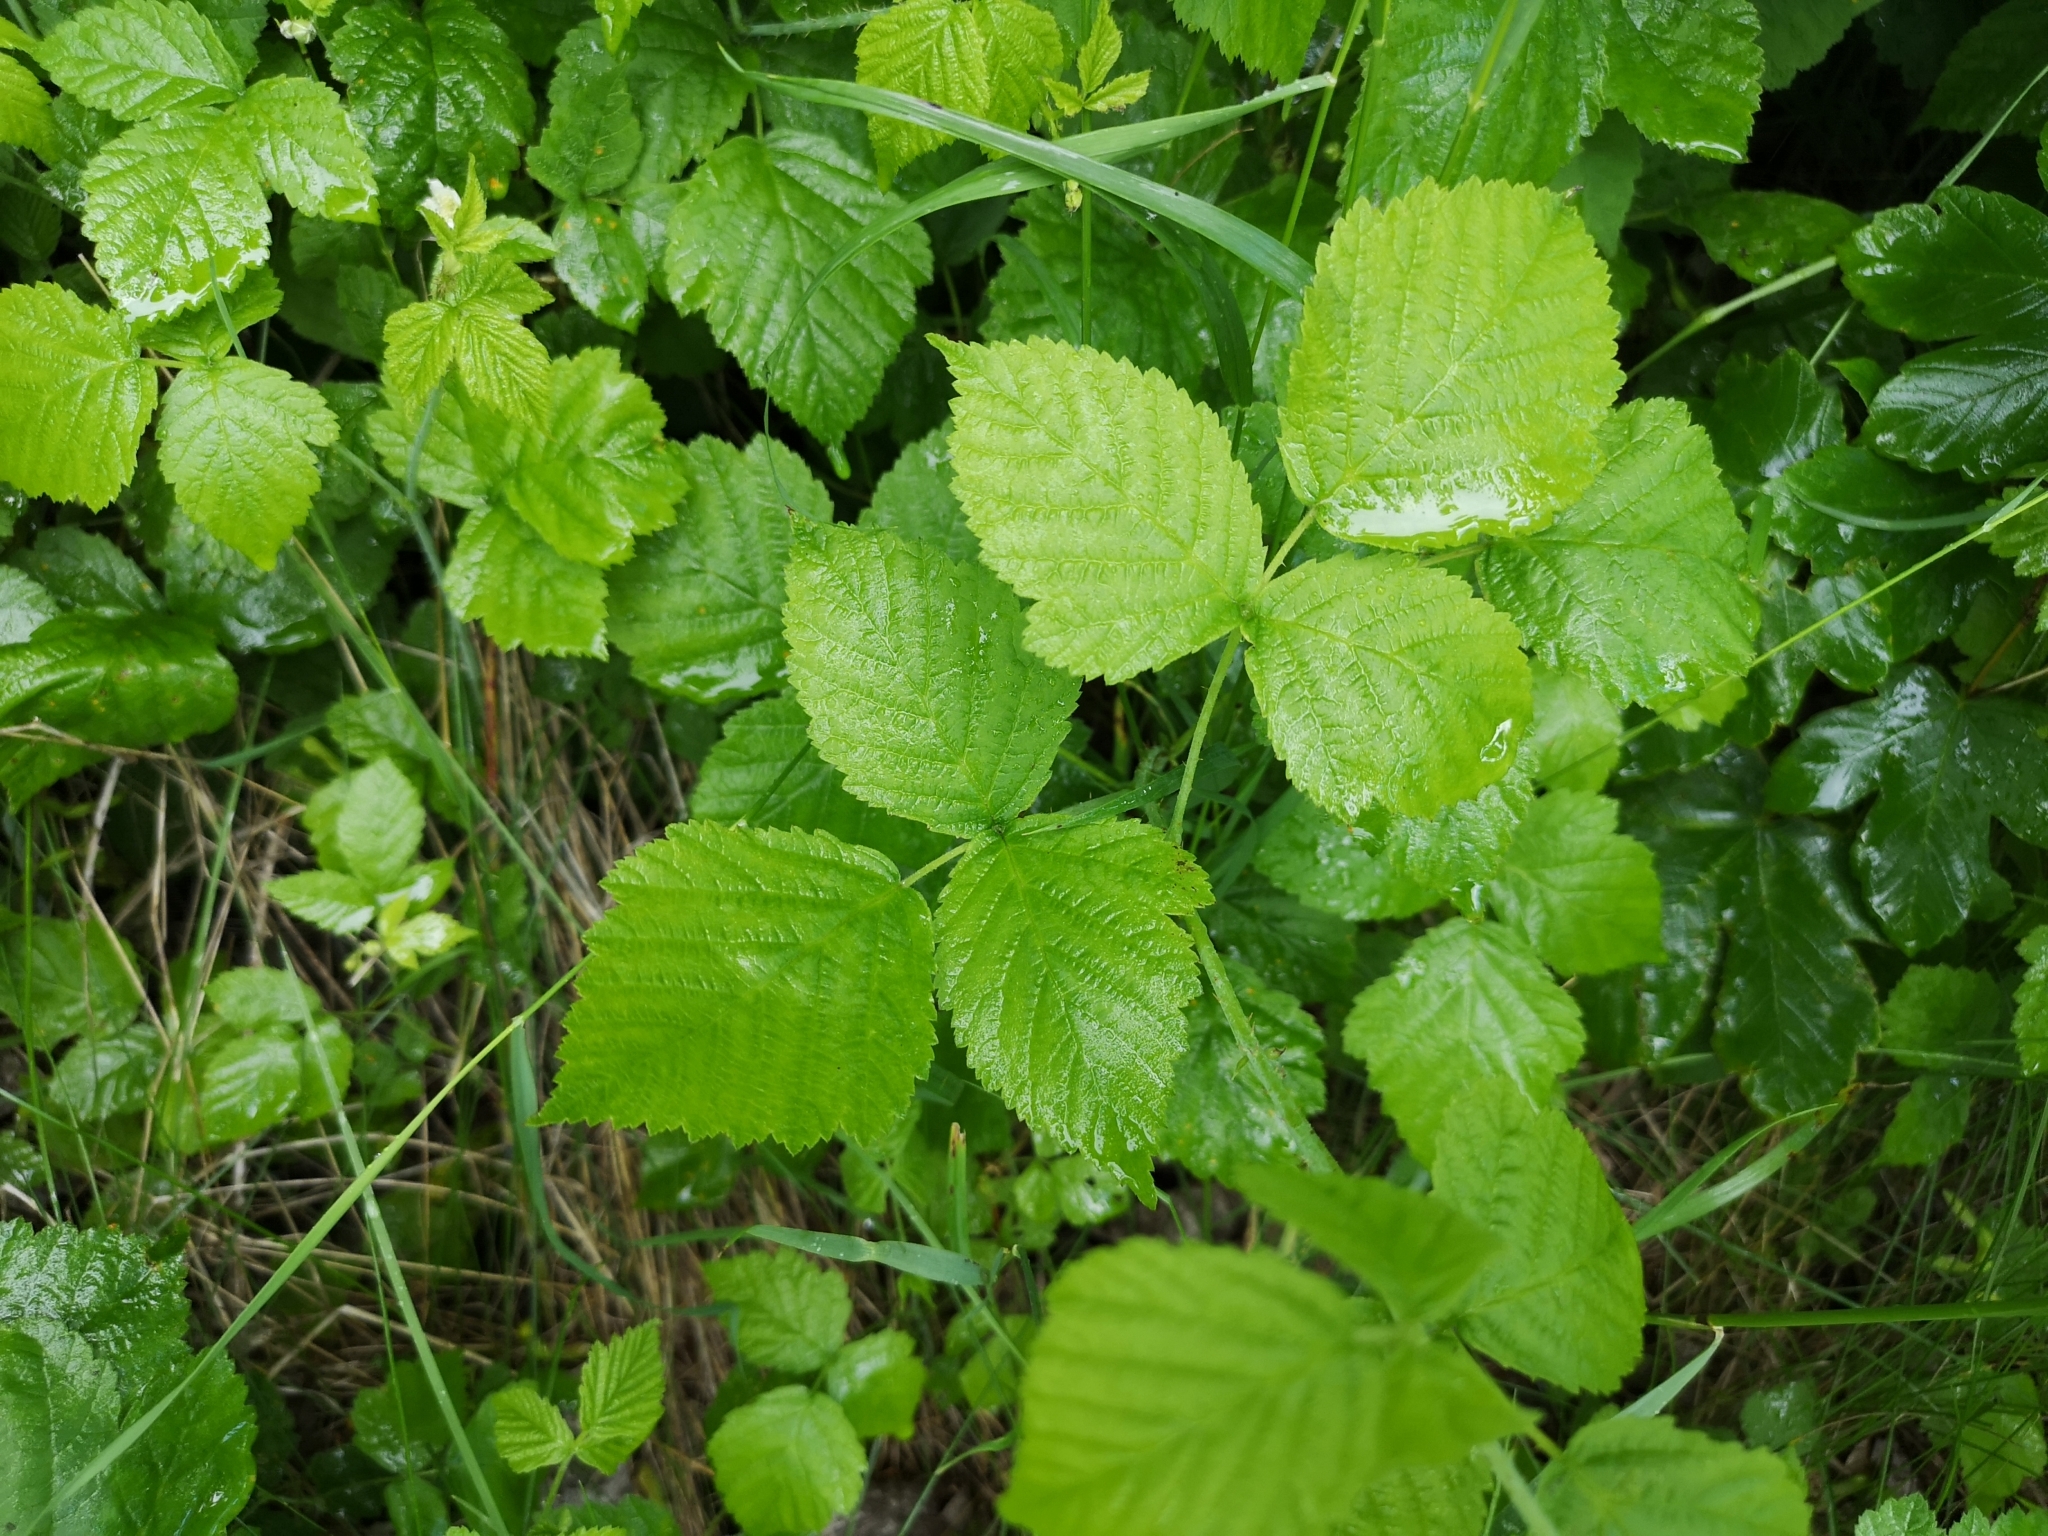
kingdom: Plantae
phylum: Tracheophyta
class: Magnoliopsida
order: Rosales
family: Rosaceae
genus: Rubus
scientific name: Rubus caesius
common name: Dewberry
